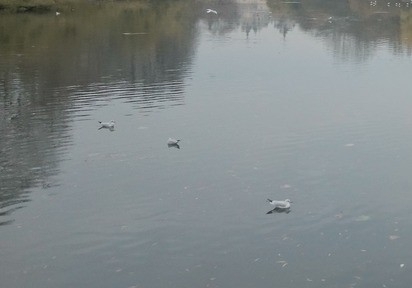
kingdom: Animalia
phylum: Chordata
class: Aves
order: Charadriiformes
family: Laridae
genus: Chroicocephalus
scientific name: Chroicocephalus ridibundus
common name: Black-headed gull
